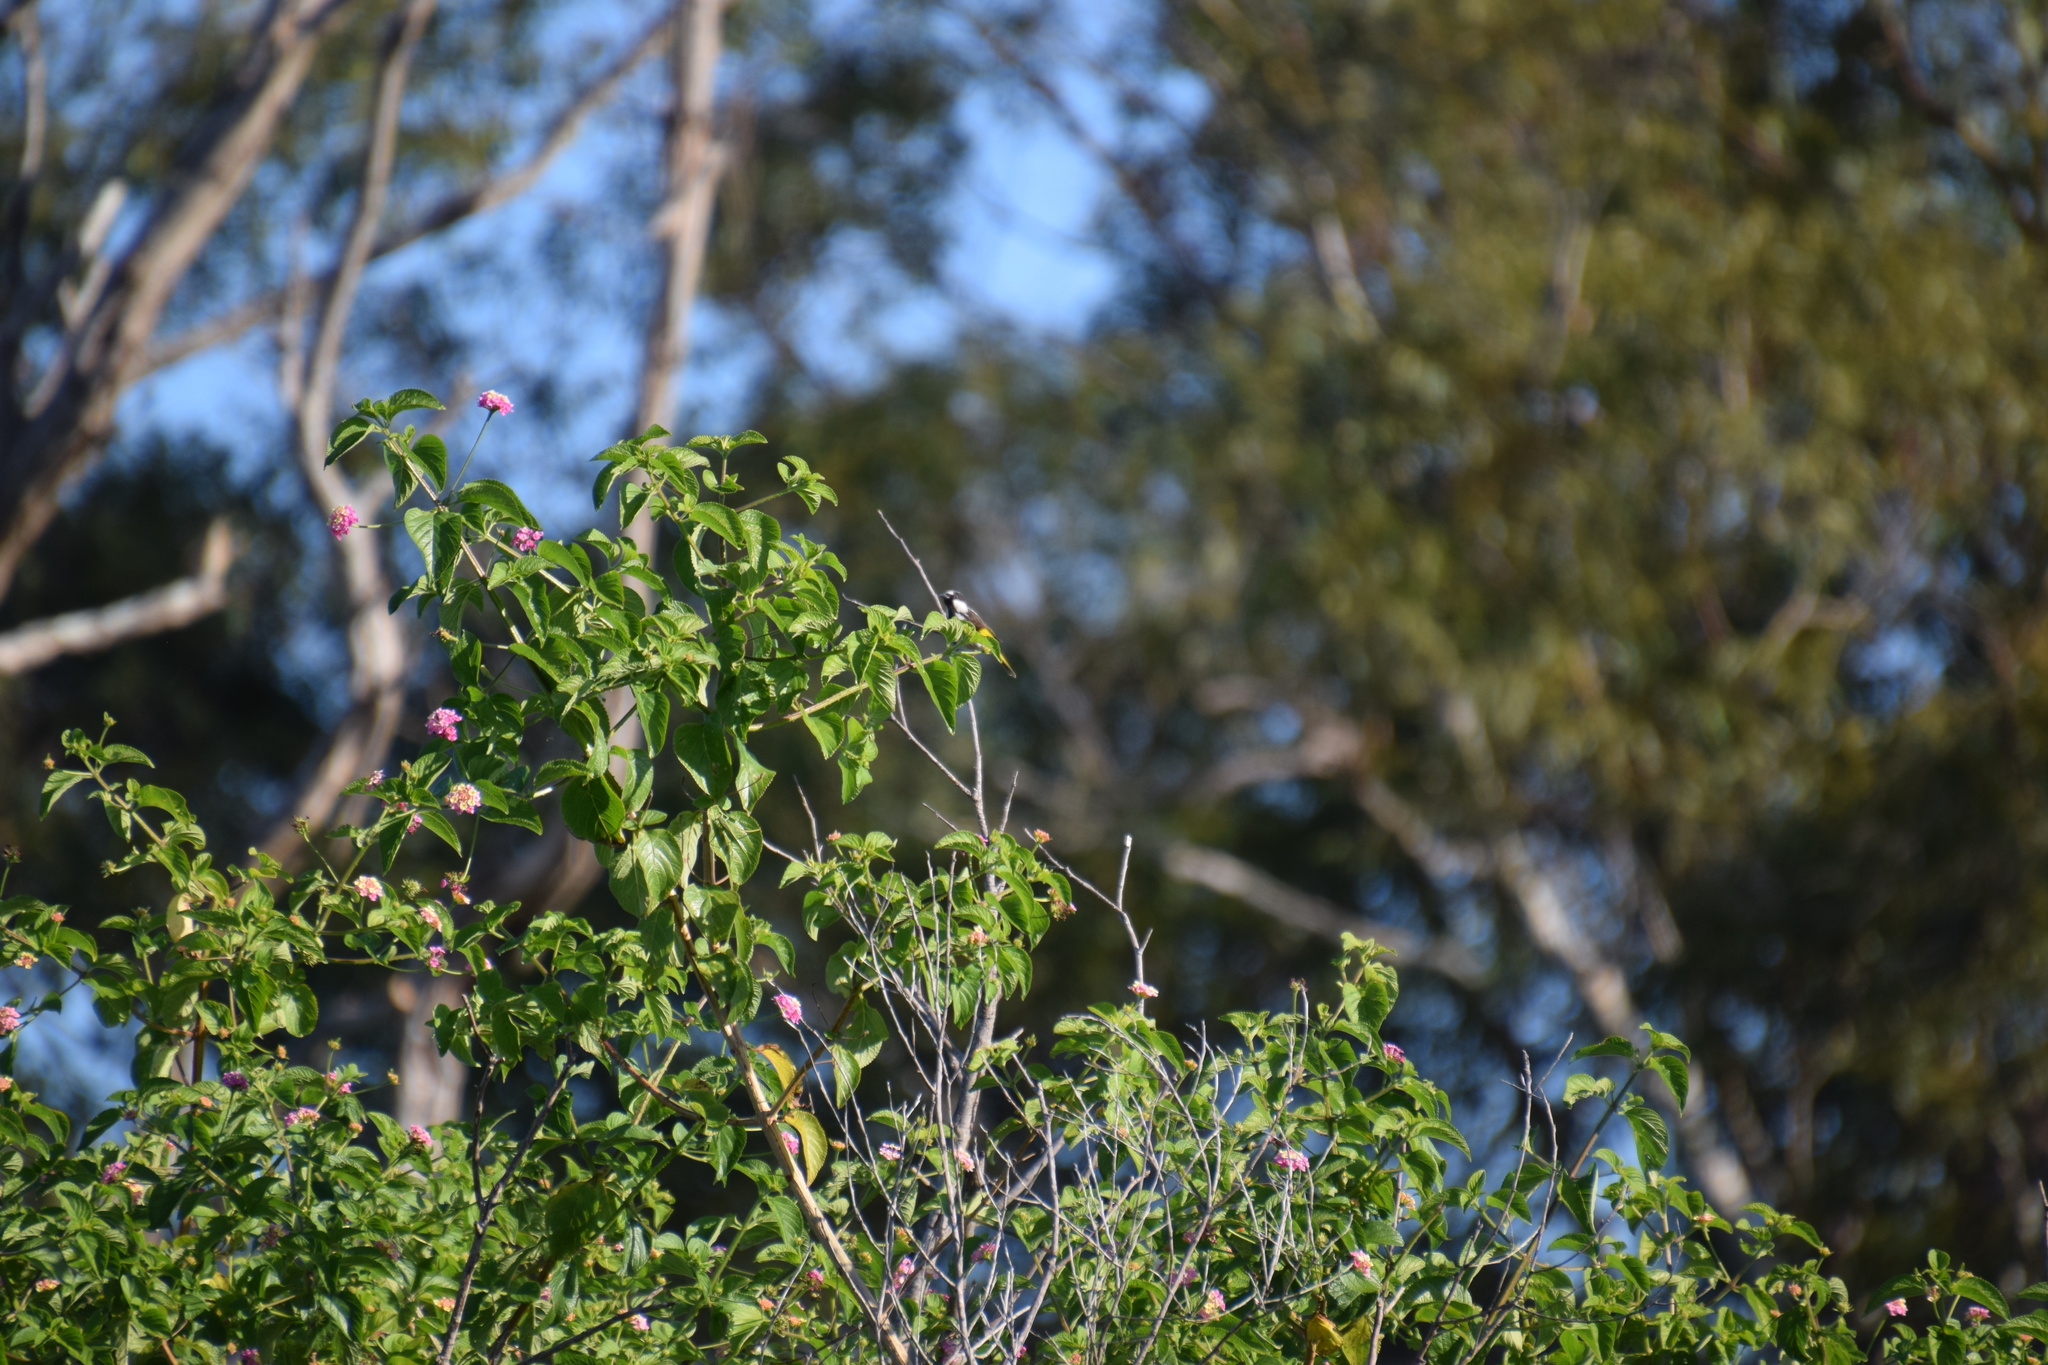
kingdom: Animalia
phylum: Chordata
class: Aves
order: Passeriformes
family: Meliphagidae
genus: Phylidonyris
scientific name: Phylidonyris niger
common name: White-cheeked honeyeater
